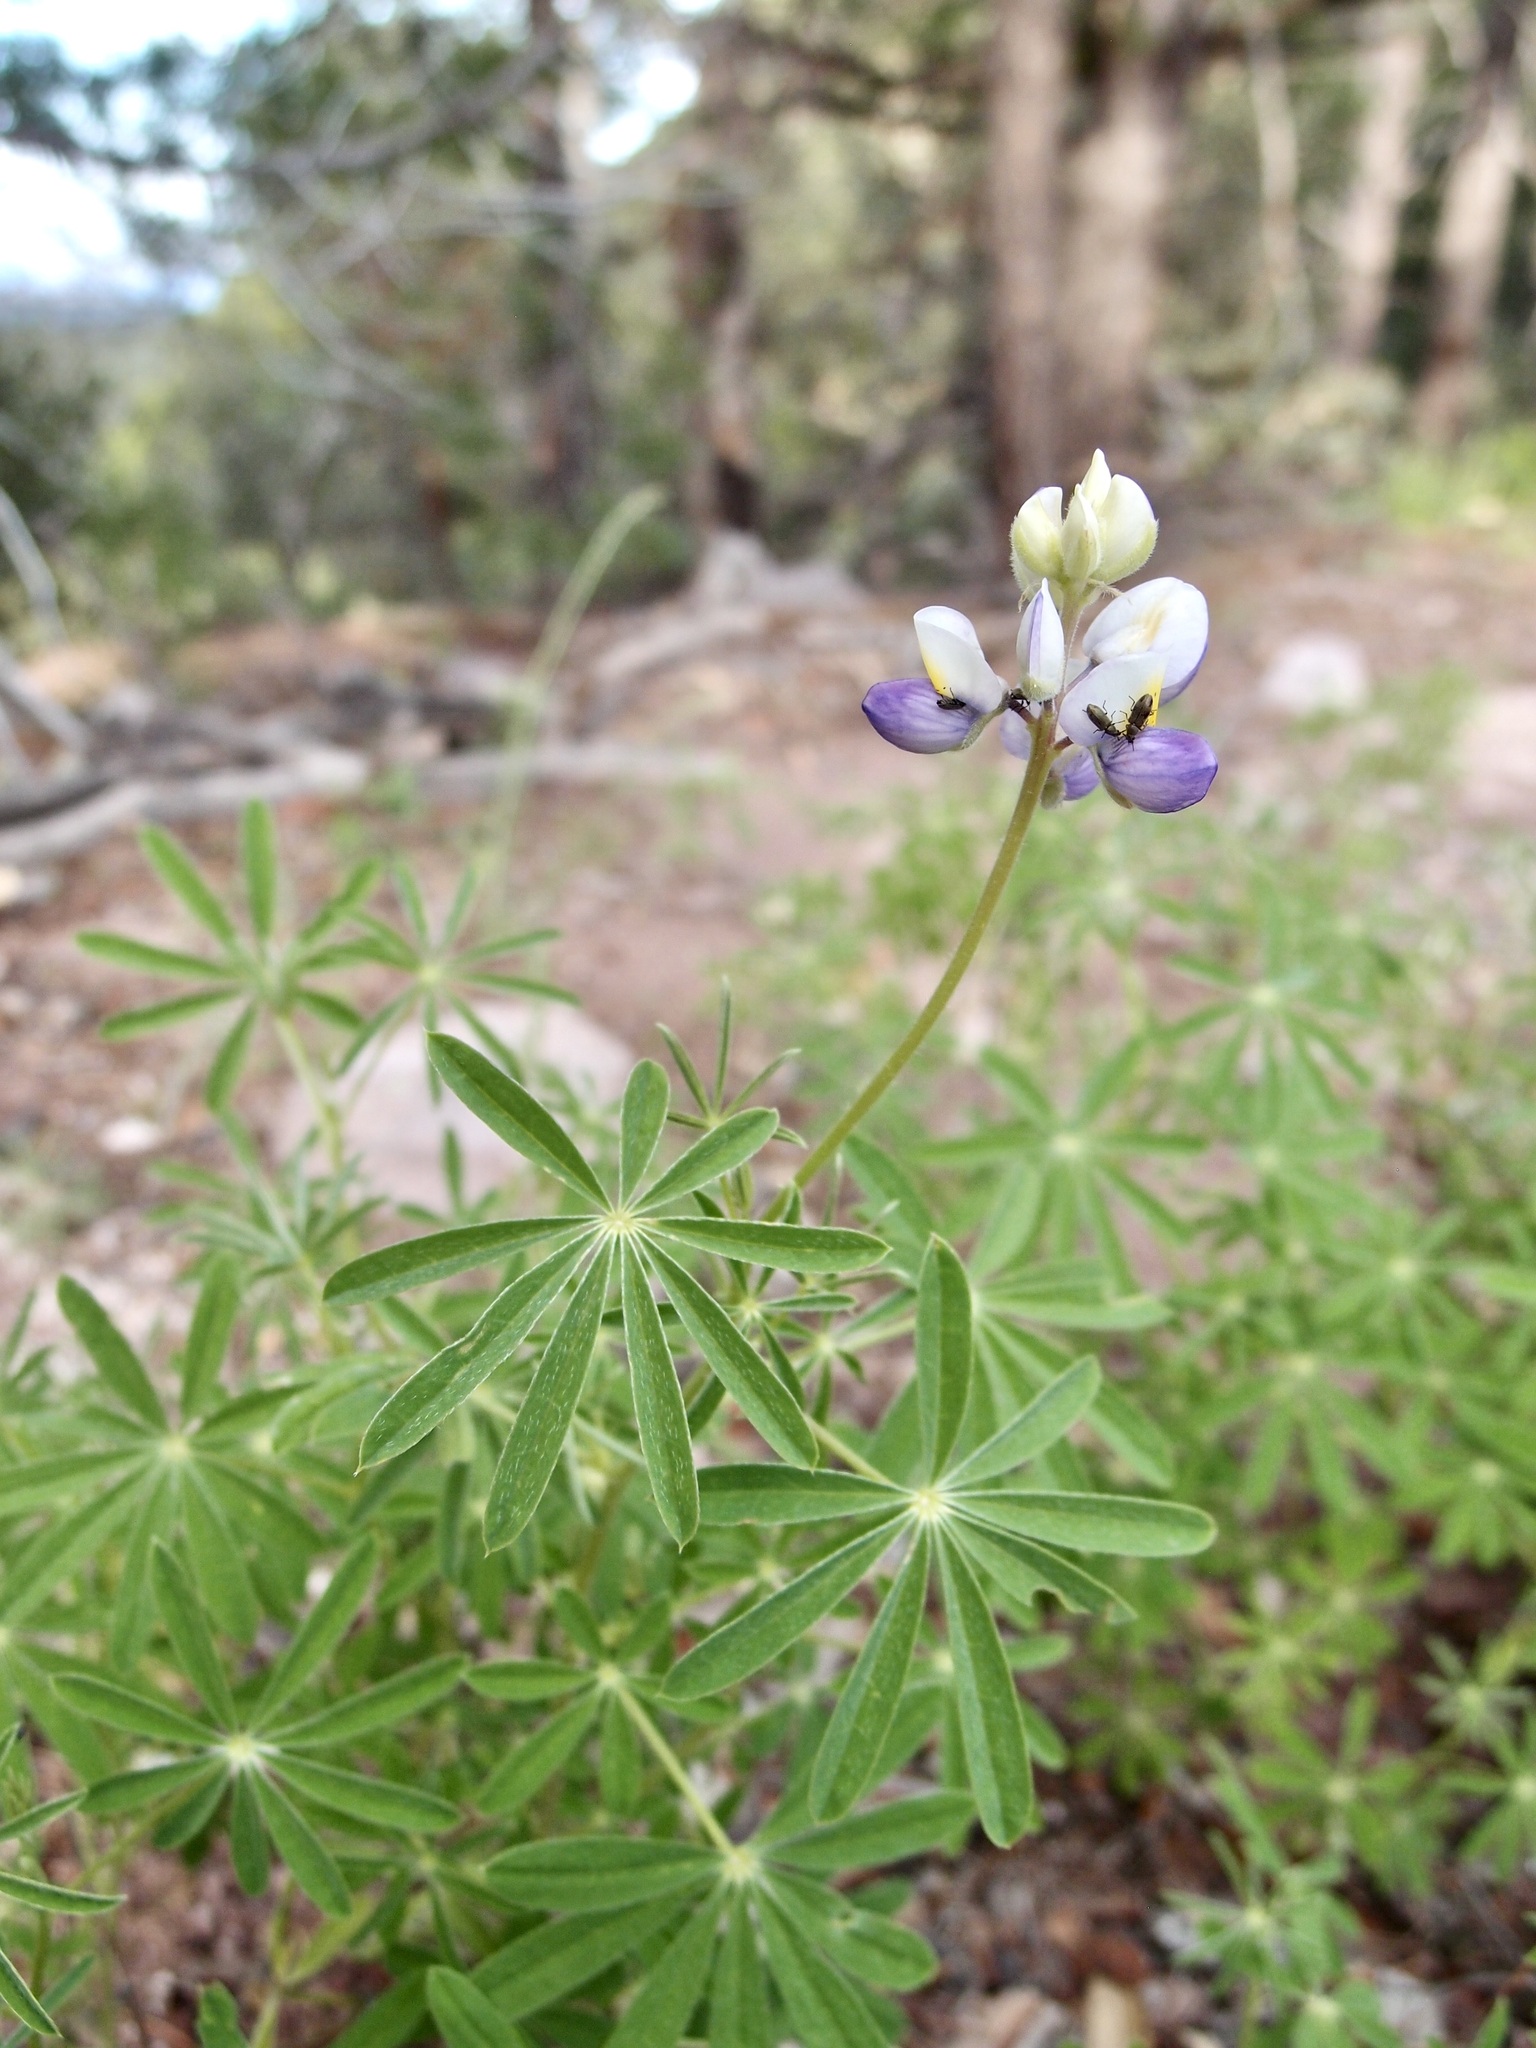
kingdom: Plantae
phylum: Tracheophyta
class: Magnoliopsida
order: Fabales
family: Fabaceae
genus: Lupinus
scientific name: Lupinus argenteus
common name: Silvery lupine
